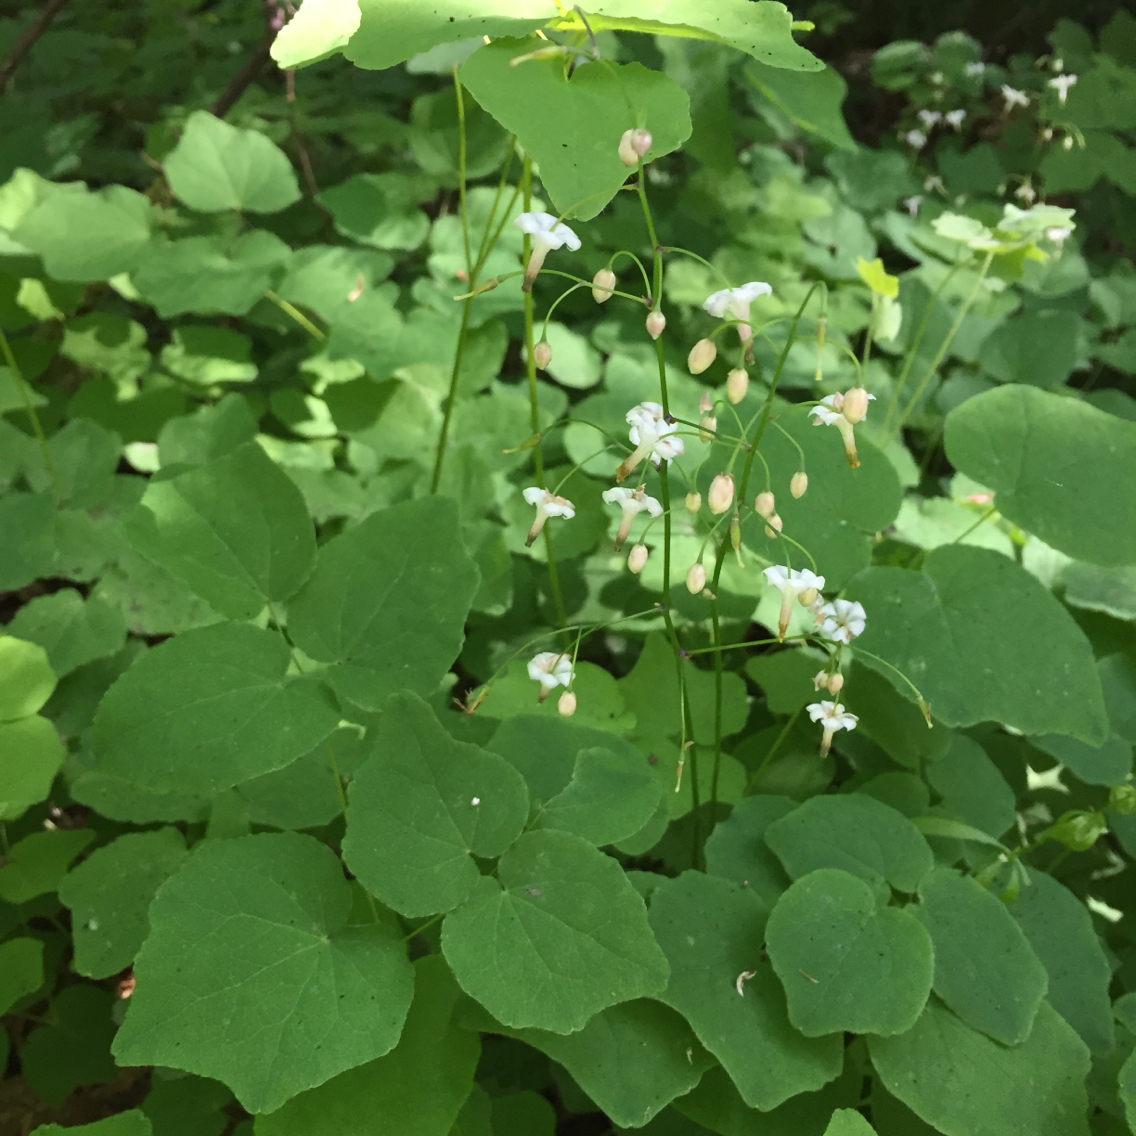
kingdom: Plantae
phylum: Tracheophyta
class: Magnoliopsida
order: Ranunculales
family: Berberidaceae
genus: Vancouveria
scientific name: Vancouveria hexandra
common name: Northern inside-out-flower
